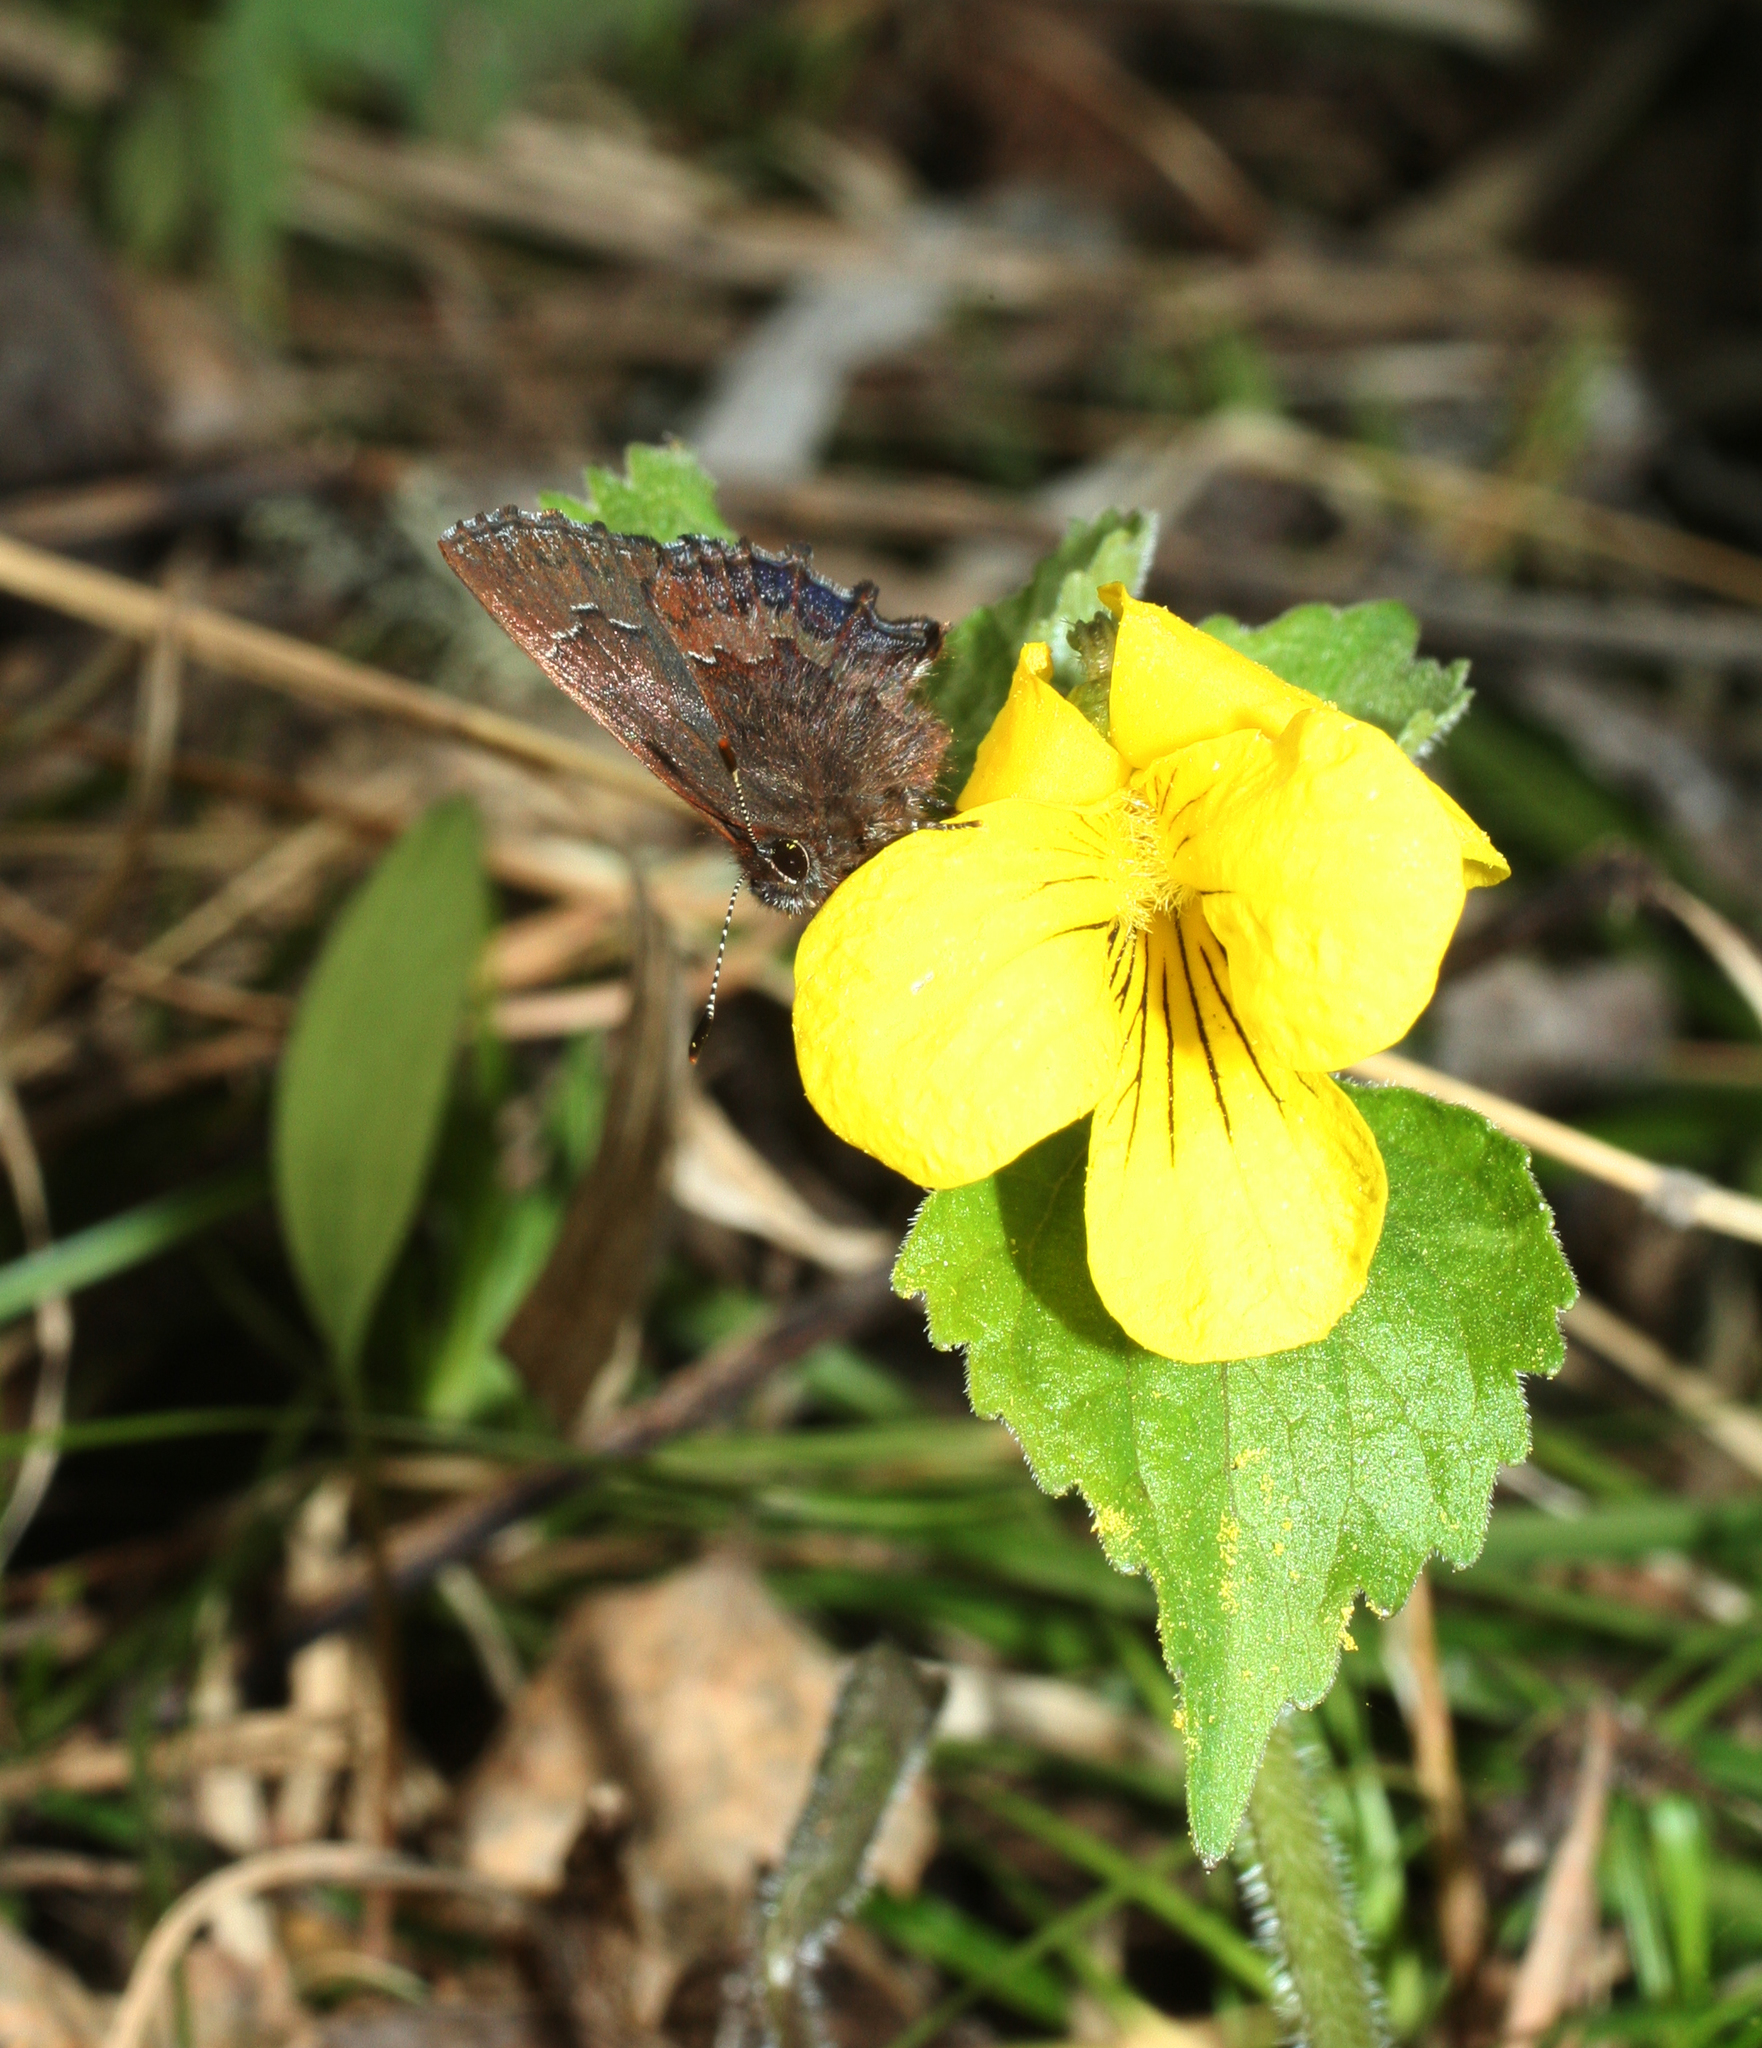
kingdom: Plantae
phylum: Tracheophyta
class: Magnoliopsida
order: Malpighiales
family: Violaceae
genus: Viola
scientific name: Viola uniflora
